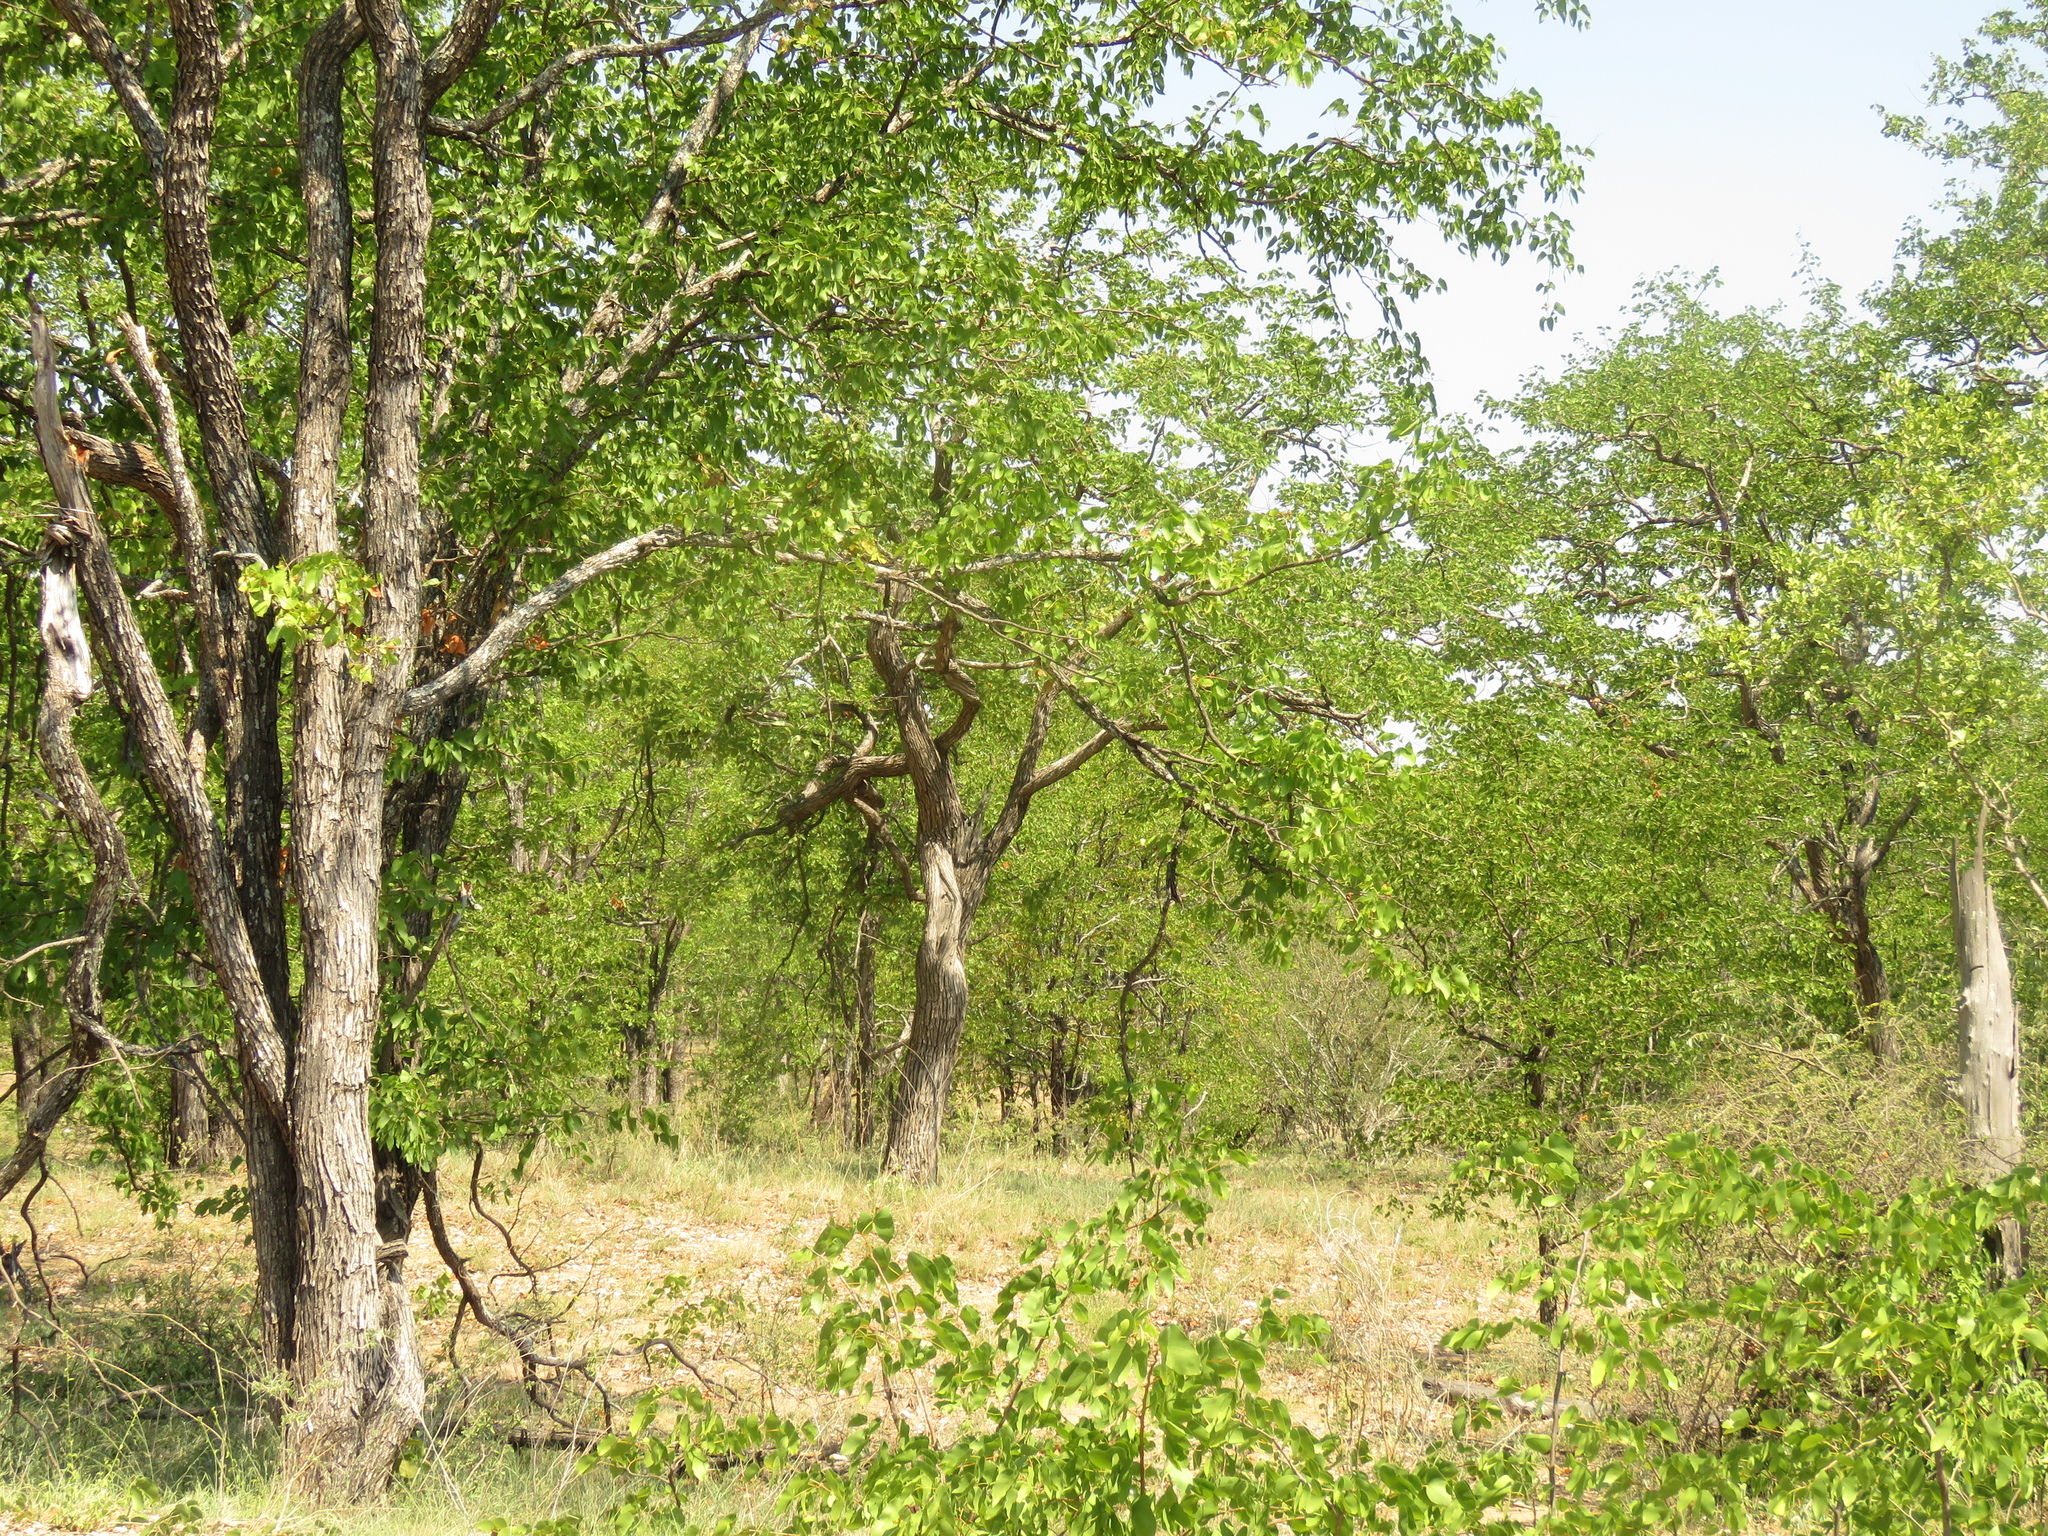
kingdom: Plantae
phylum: Tracheophyta
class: Magnoliopsida
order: Fabales
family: Fabaceae
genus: Colophospermum
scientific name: Colophospermum mopane
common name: Mopane
